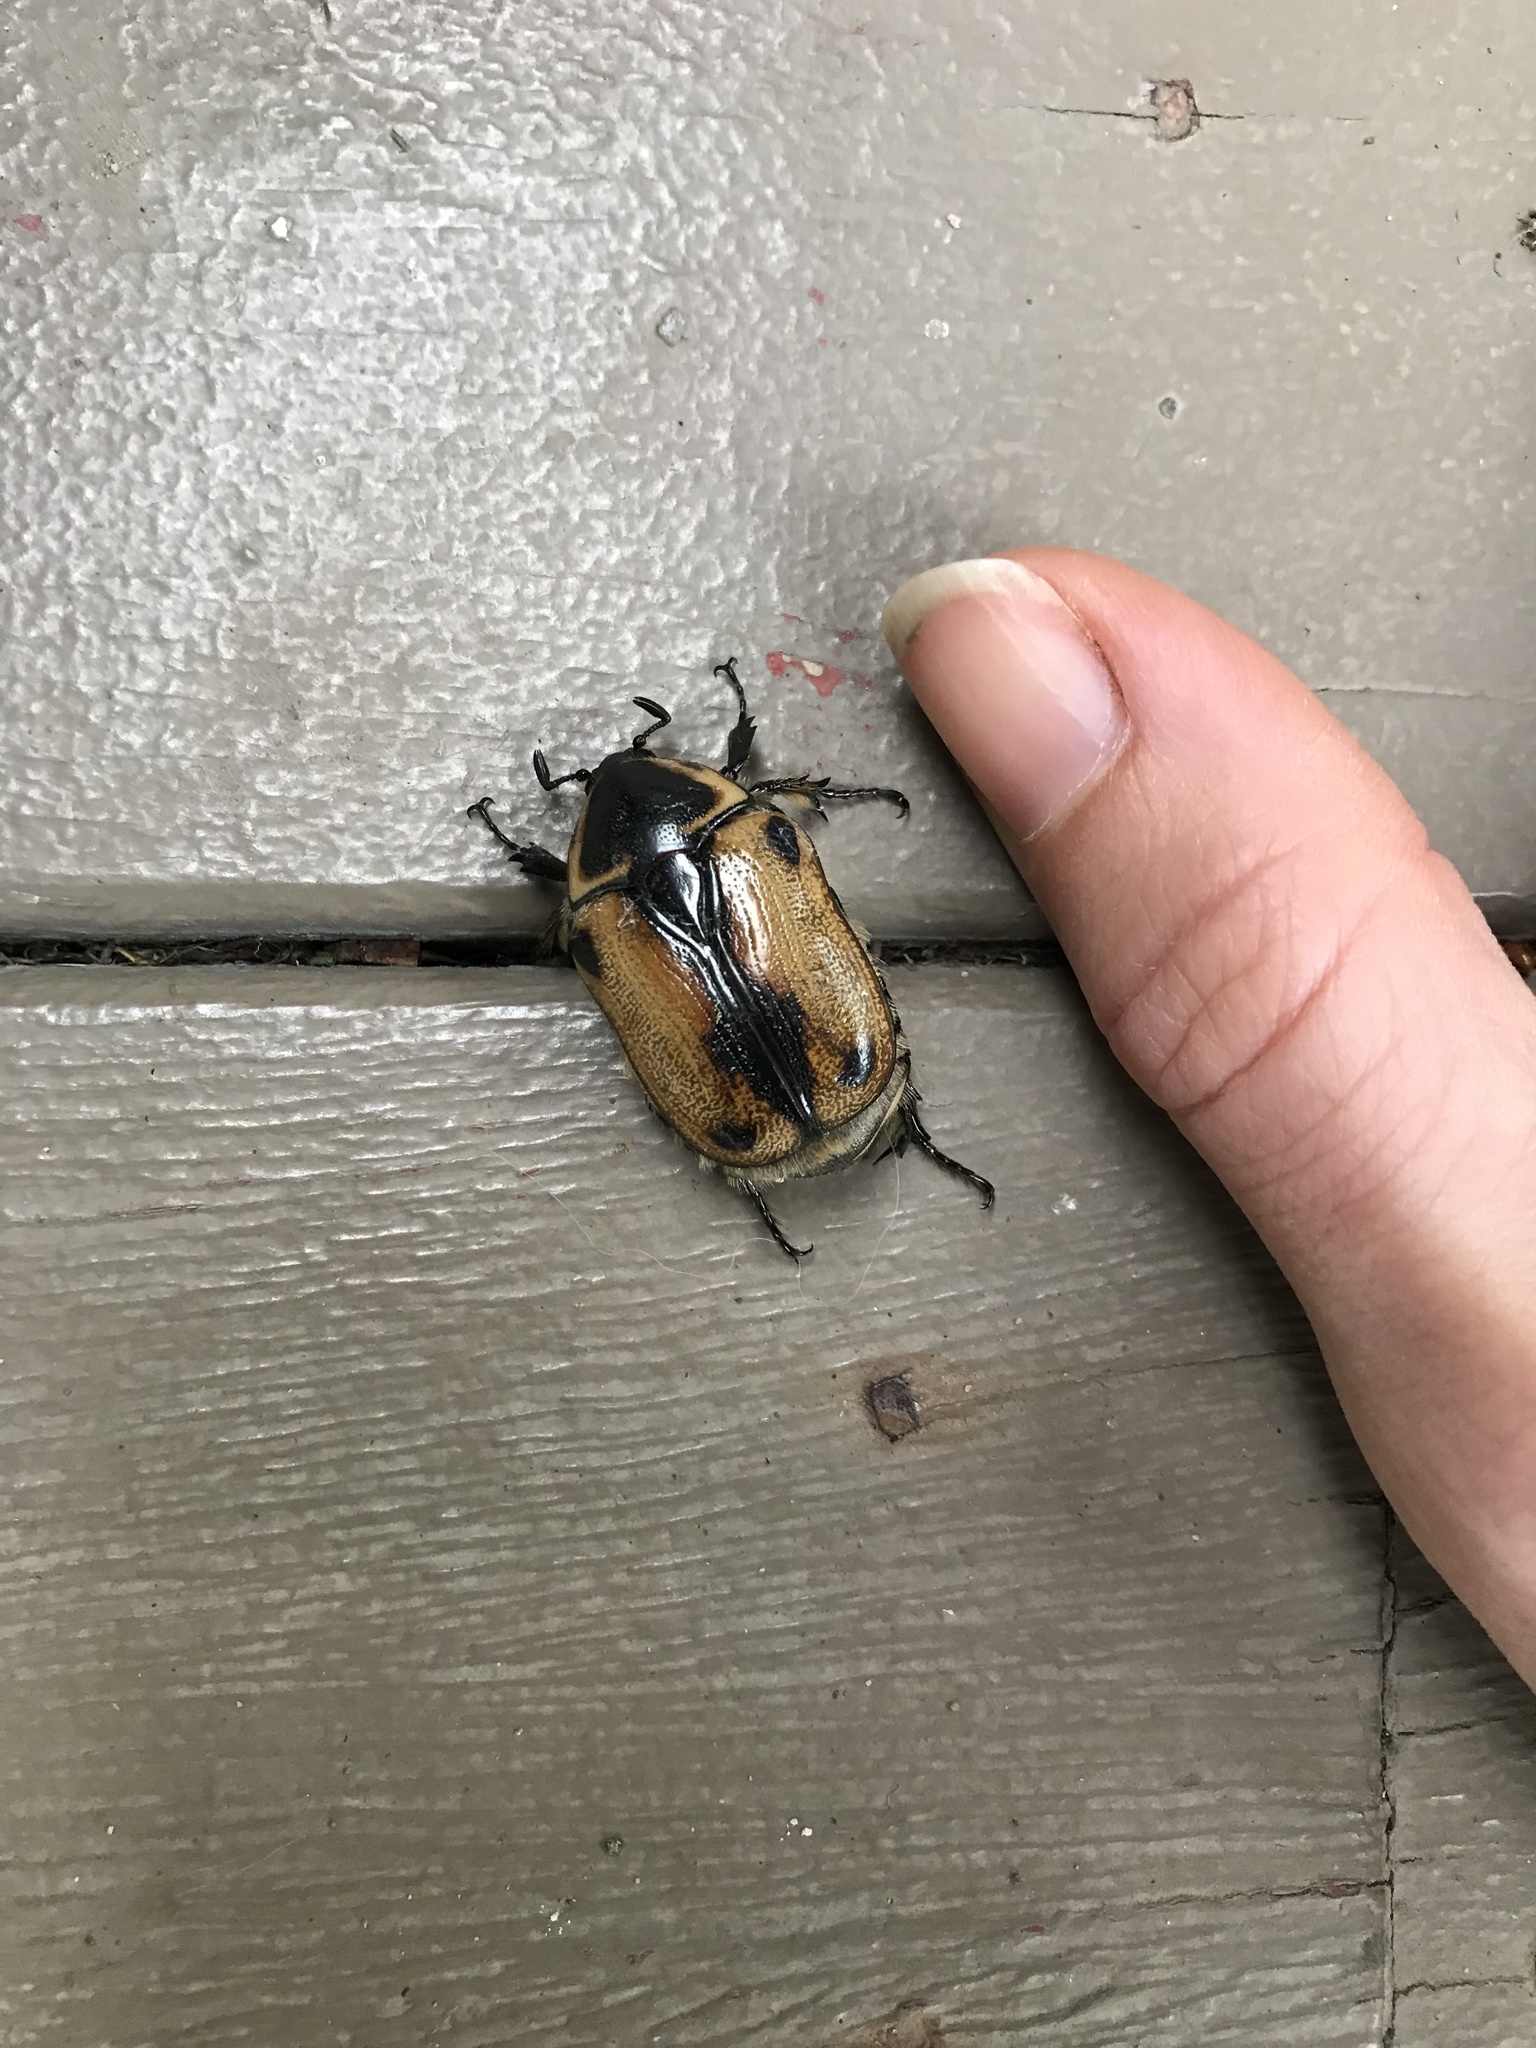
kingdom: Animalia
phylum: Arthropoda
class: Insecta
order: Coleoptera
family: Scarabaeidae
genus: Chondropyga
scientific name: Chondropyga dorsalis
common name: Cowboy beetle
